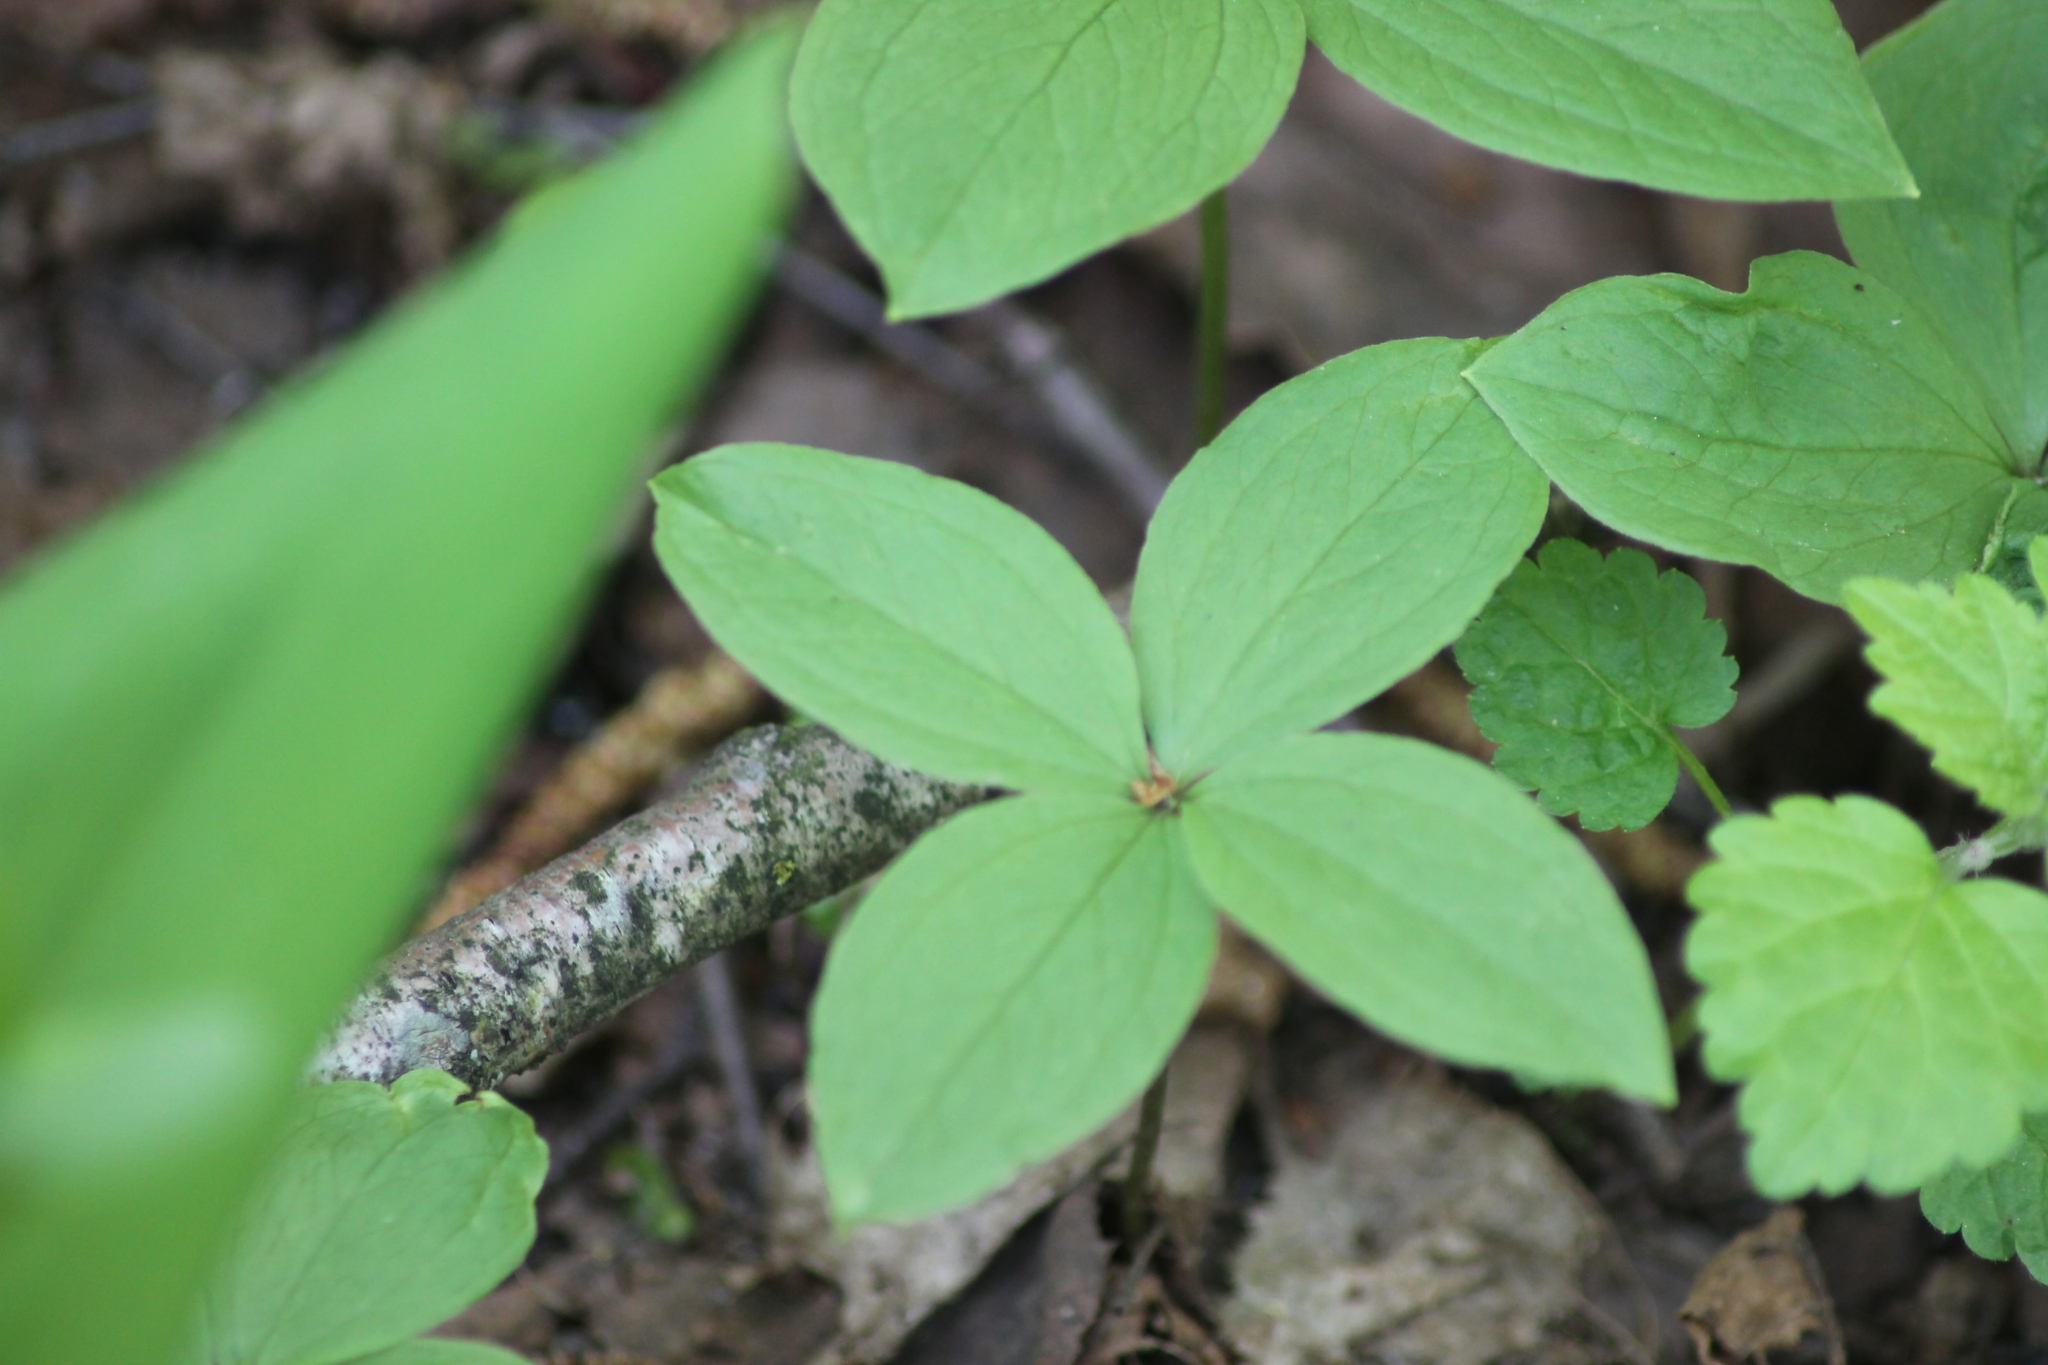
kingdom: Plantae
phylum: Tracheophyta
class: Liliopsida
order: Liliales
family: Melanthiaceae
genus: Paris
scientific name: Paris quadrifolia
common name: Herb-paris
